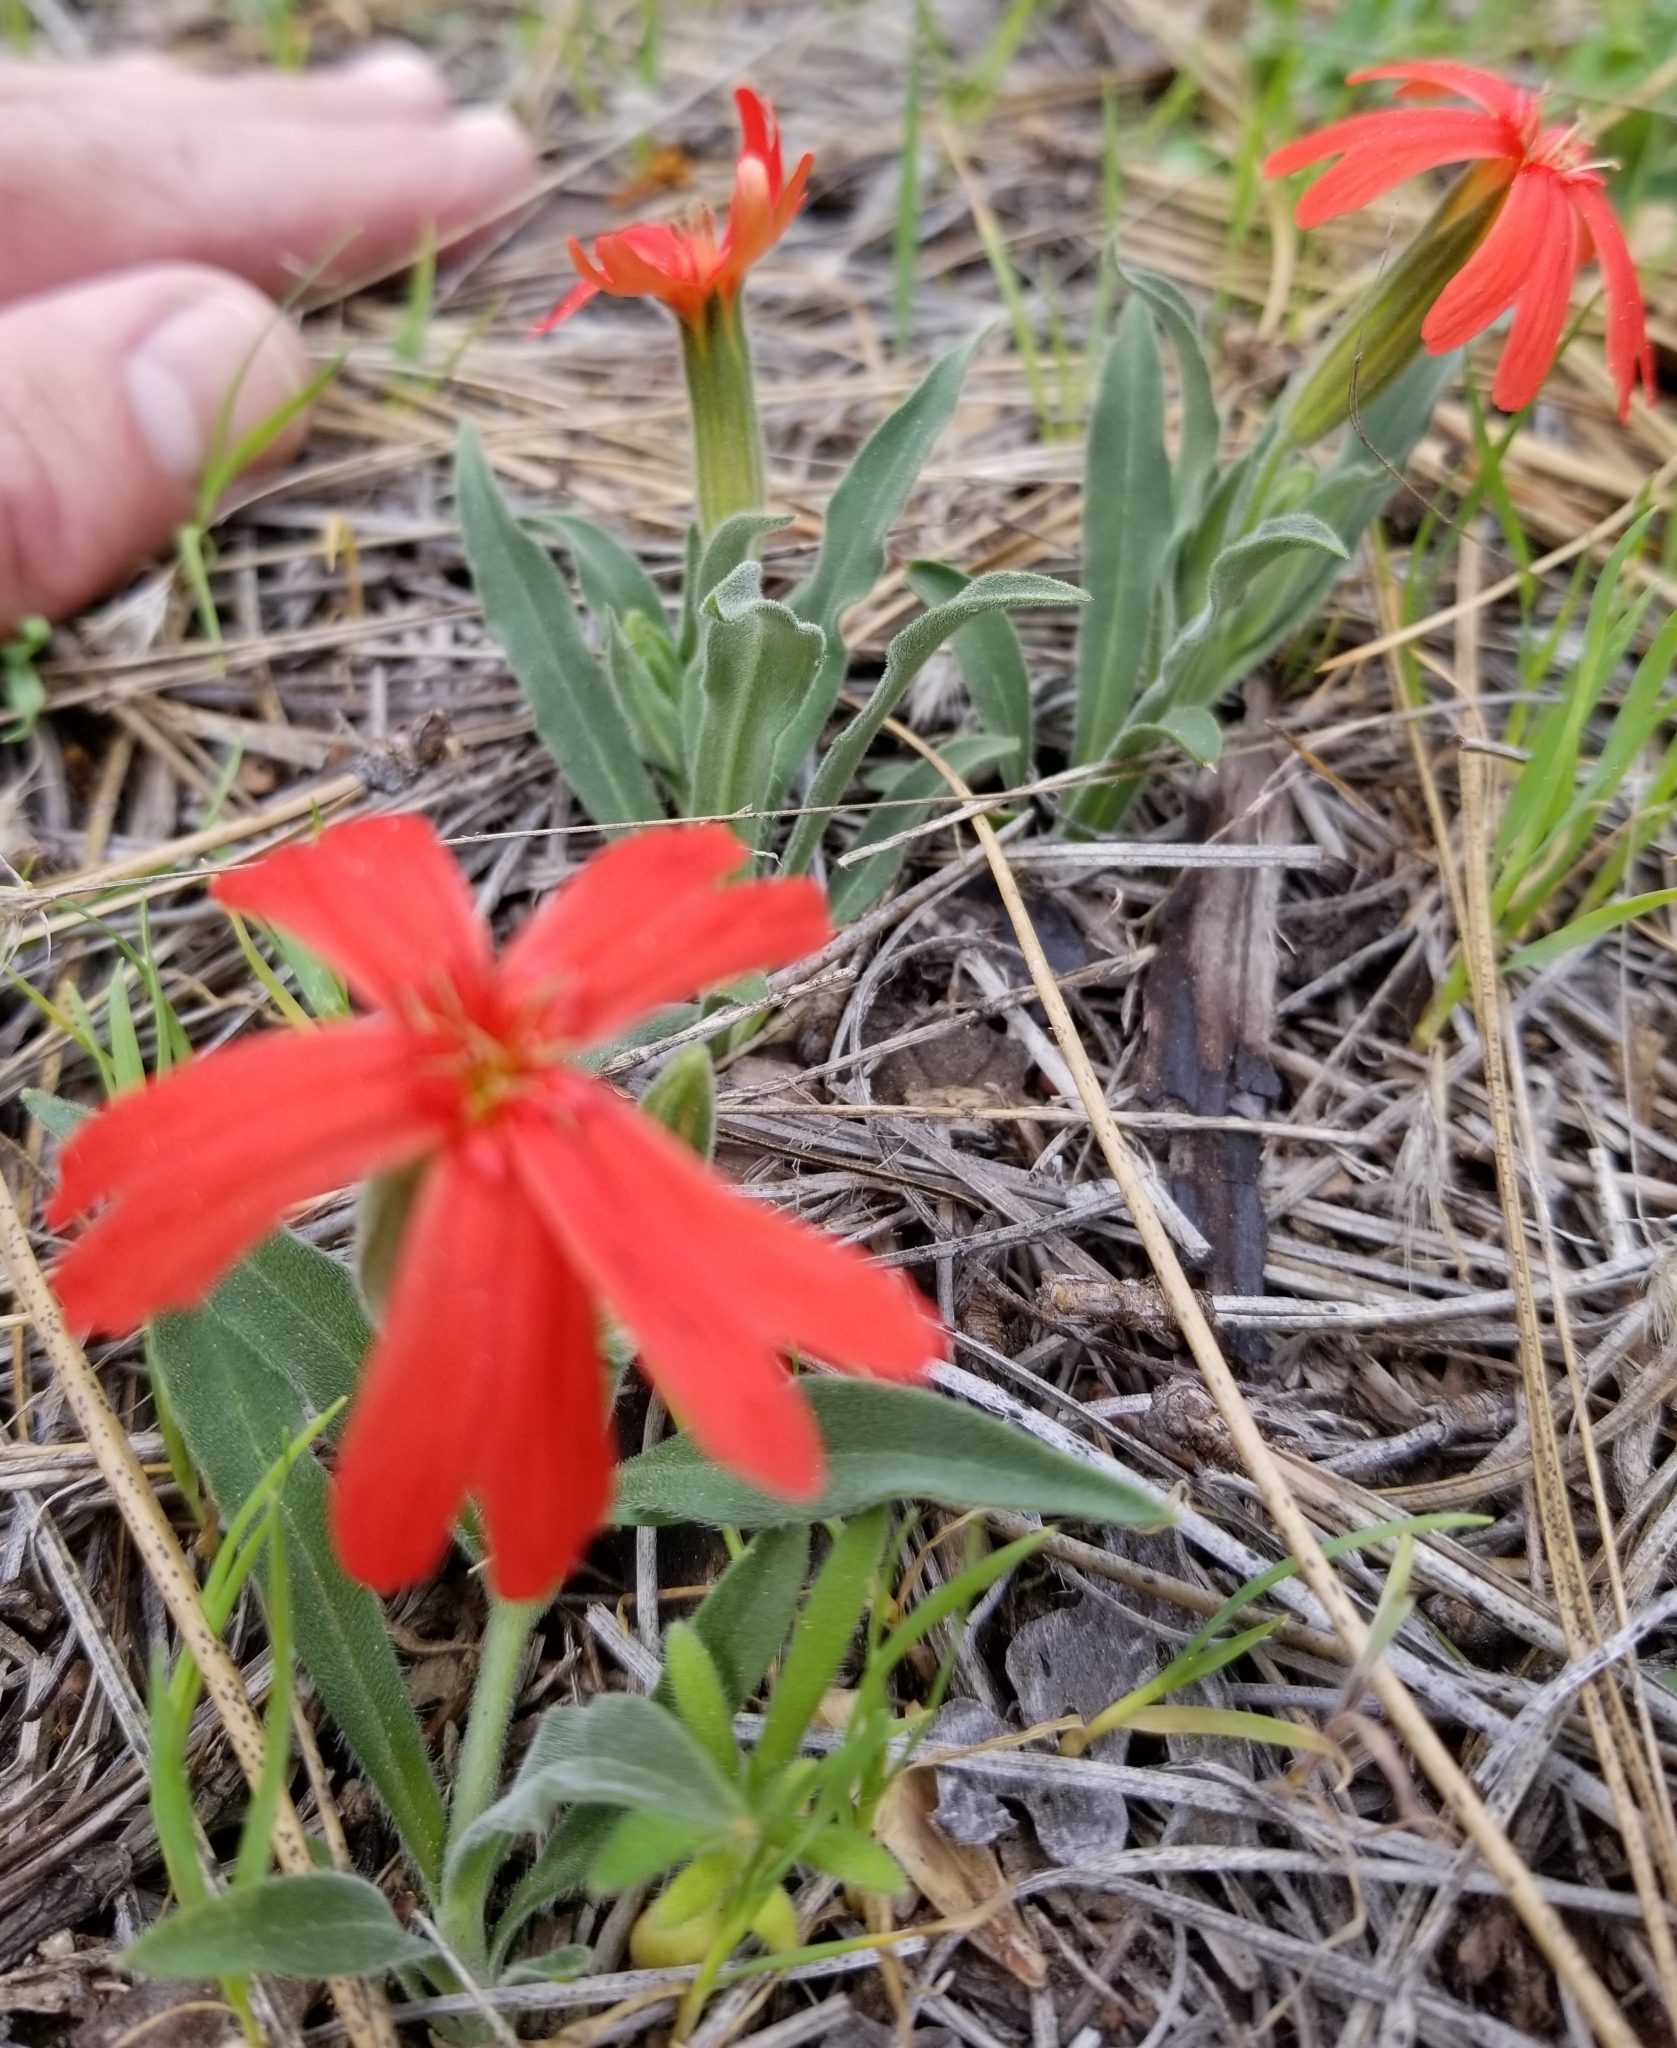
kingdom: Plantae
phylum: Tracheophyta
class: Magnoliopsida
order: Caryophyllales
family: Caryophyllaceae
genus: Silene
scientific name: Silene laciniata
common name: Indian-pink
